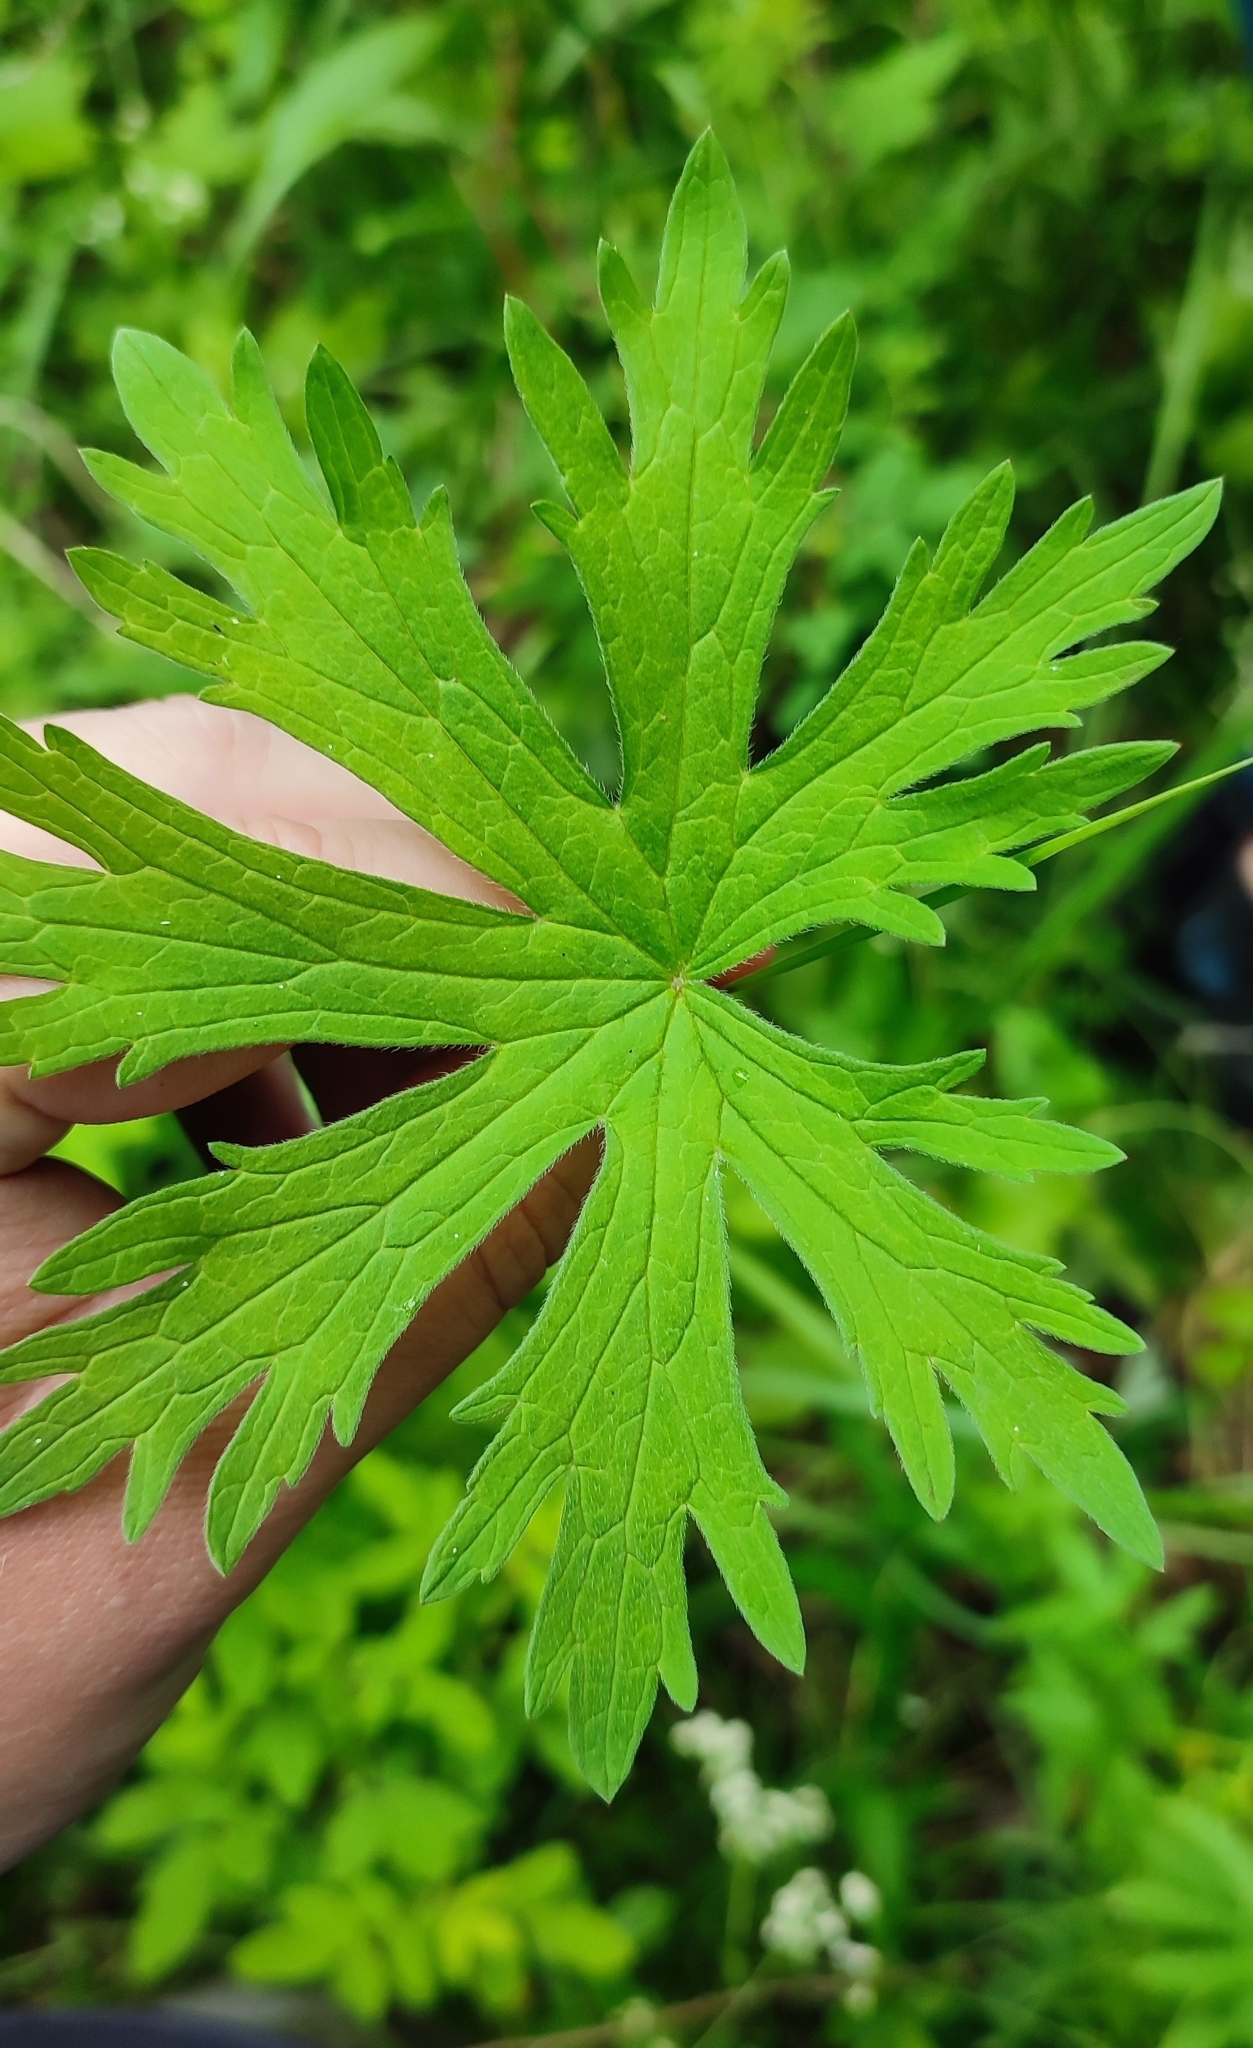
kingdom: Plantae
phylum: Tracheophyta
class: Magnoliopsida
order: Geraniales
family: Geraniaceae
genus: Geranium
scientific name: Geranium sylvaticum
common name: Wood crane's-bill
